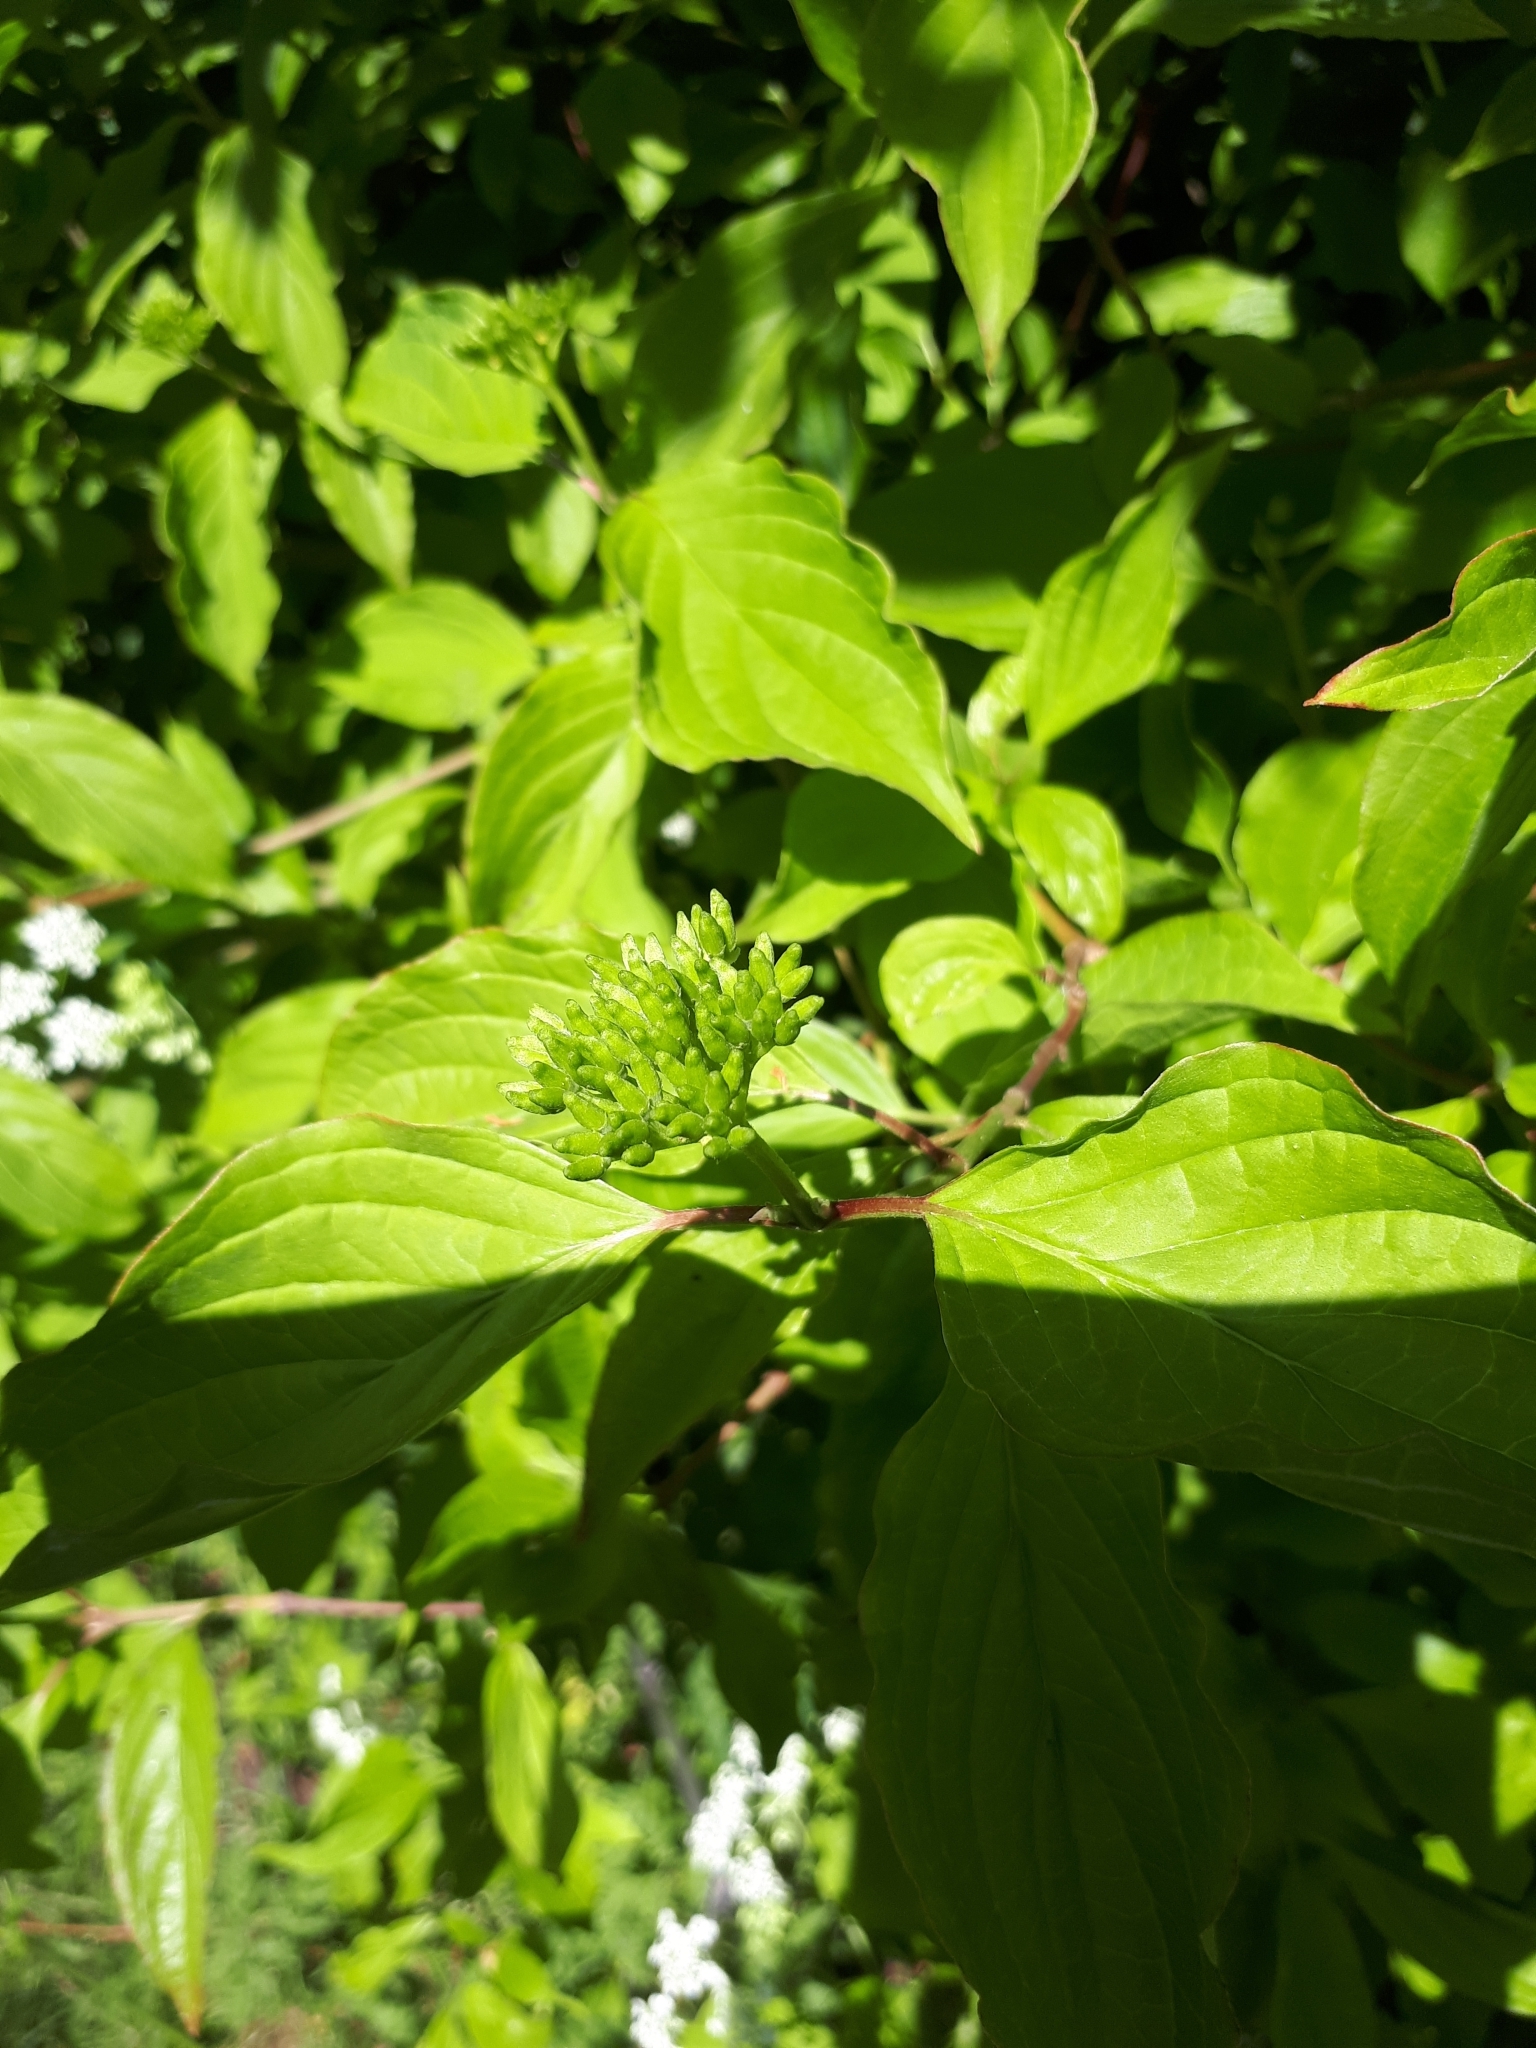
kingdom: Plantae
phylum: Tracheophyta
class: Magnoliopsida
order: Cornales
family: Cornaceae
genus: Cornus
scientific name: Cornus sanguinea
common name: Dogwood
